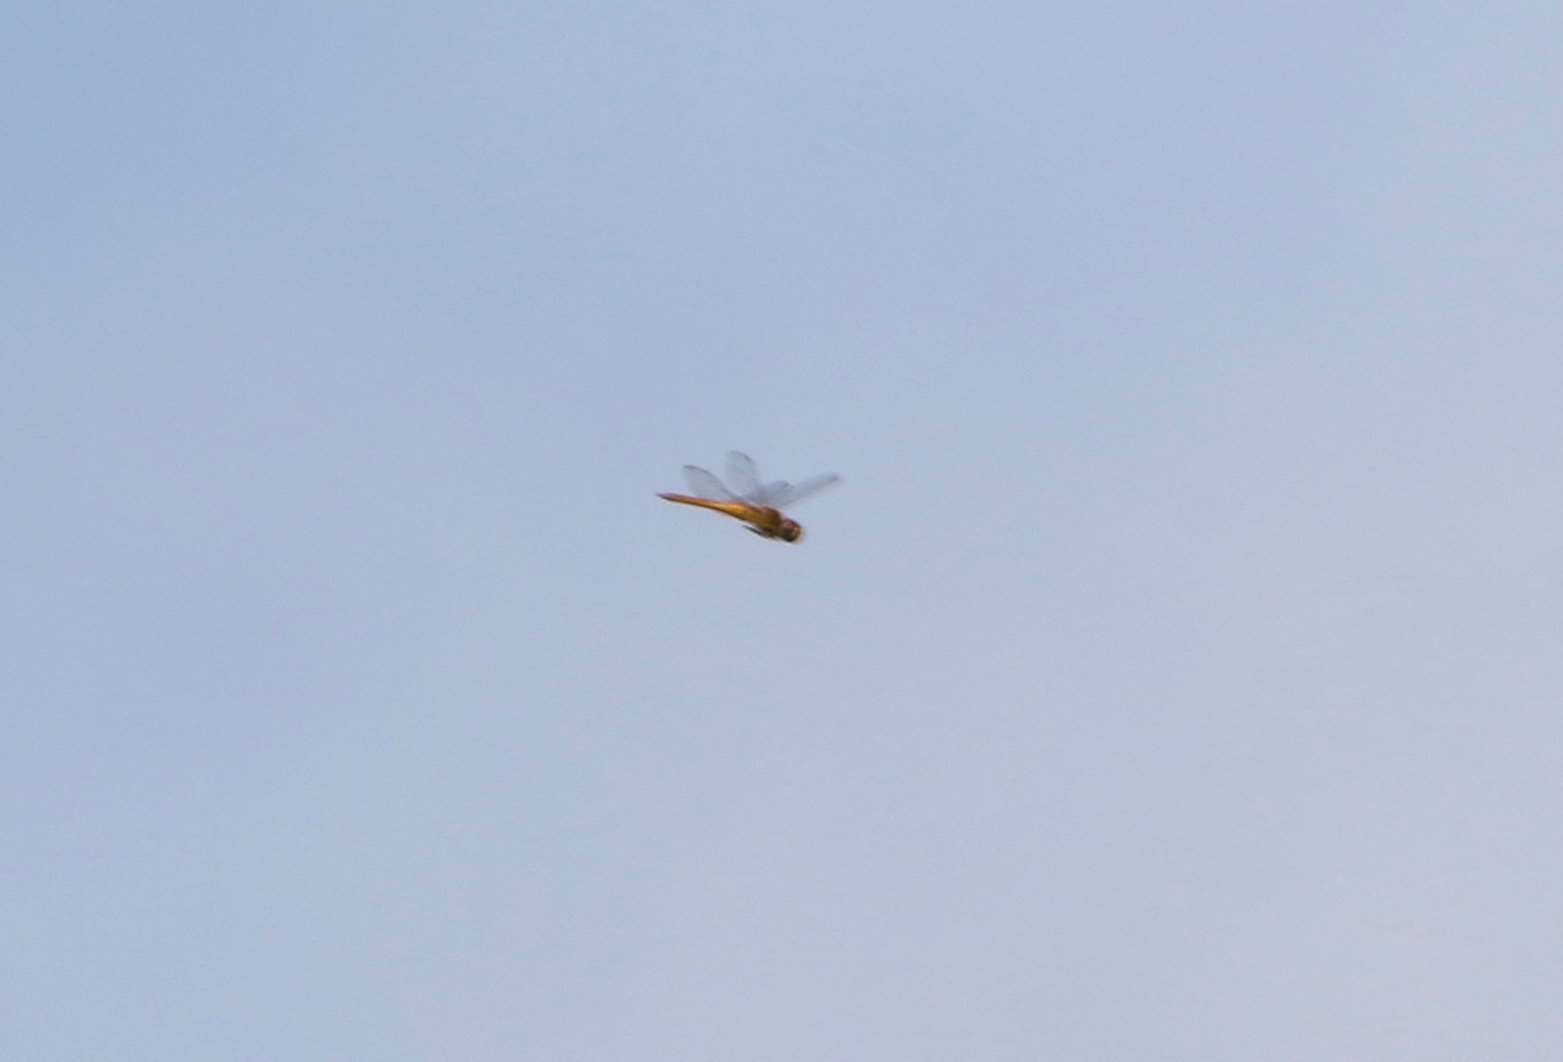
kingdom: Animalia
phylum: Arthropoda
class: Insecta
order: Odonata
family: Libellulidae
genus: Pantala
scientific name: Pantala flavescens
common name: Wandering glider
